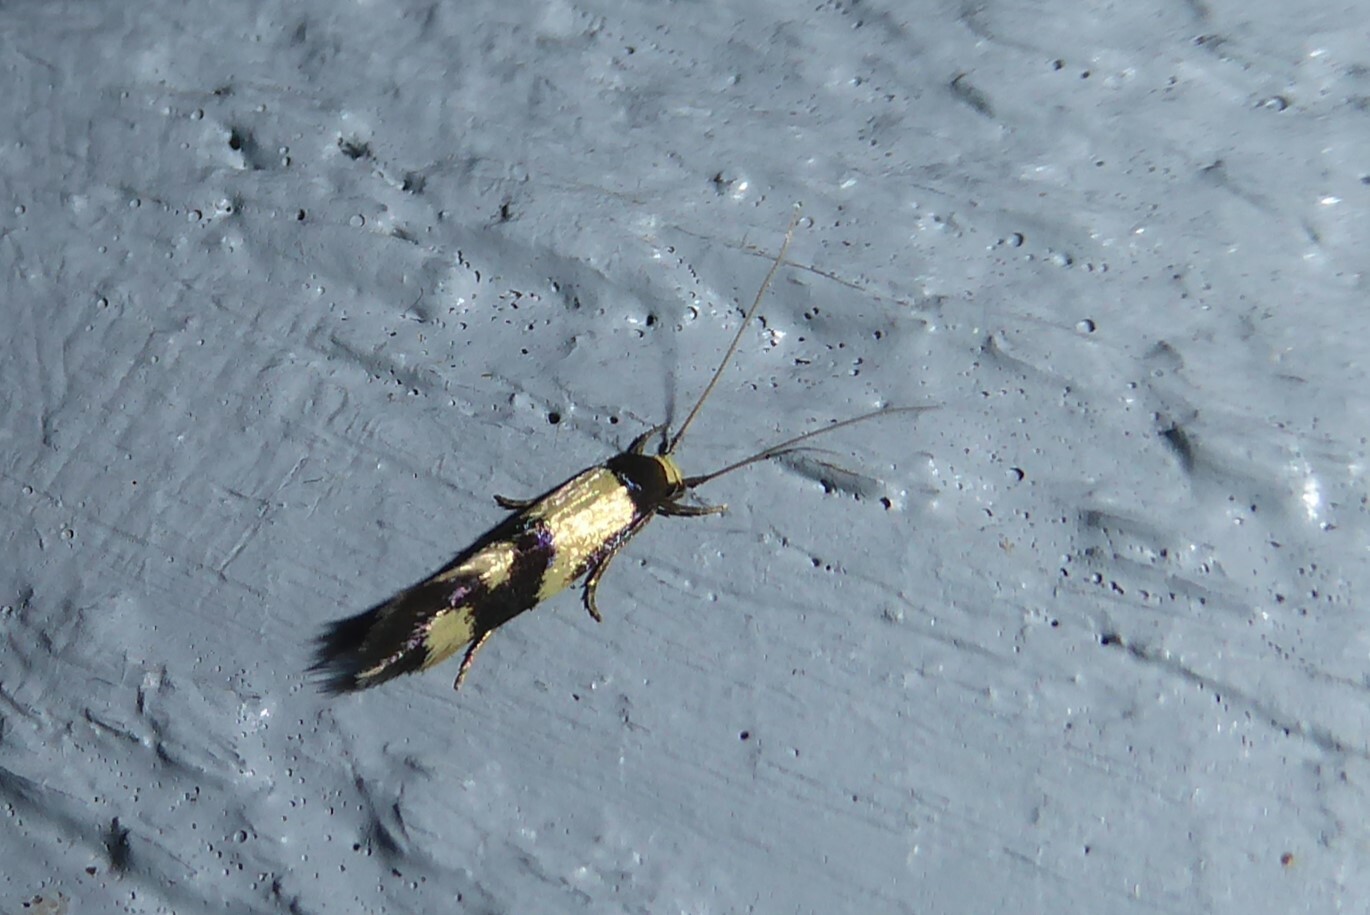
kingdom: Animalia
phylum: Arthropoda
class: Insecta
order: Lepidoptera
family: Tineidae
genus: Opogona
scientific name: Opogona comptella
